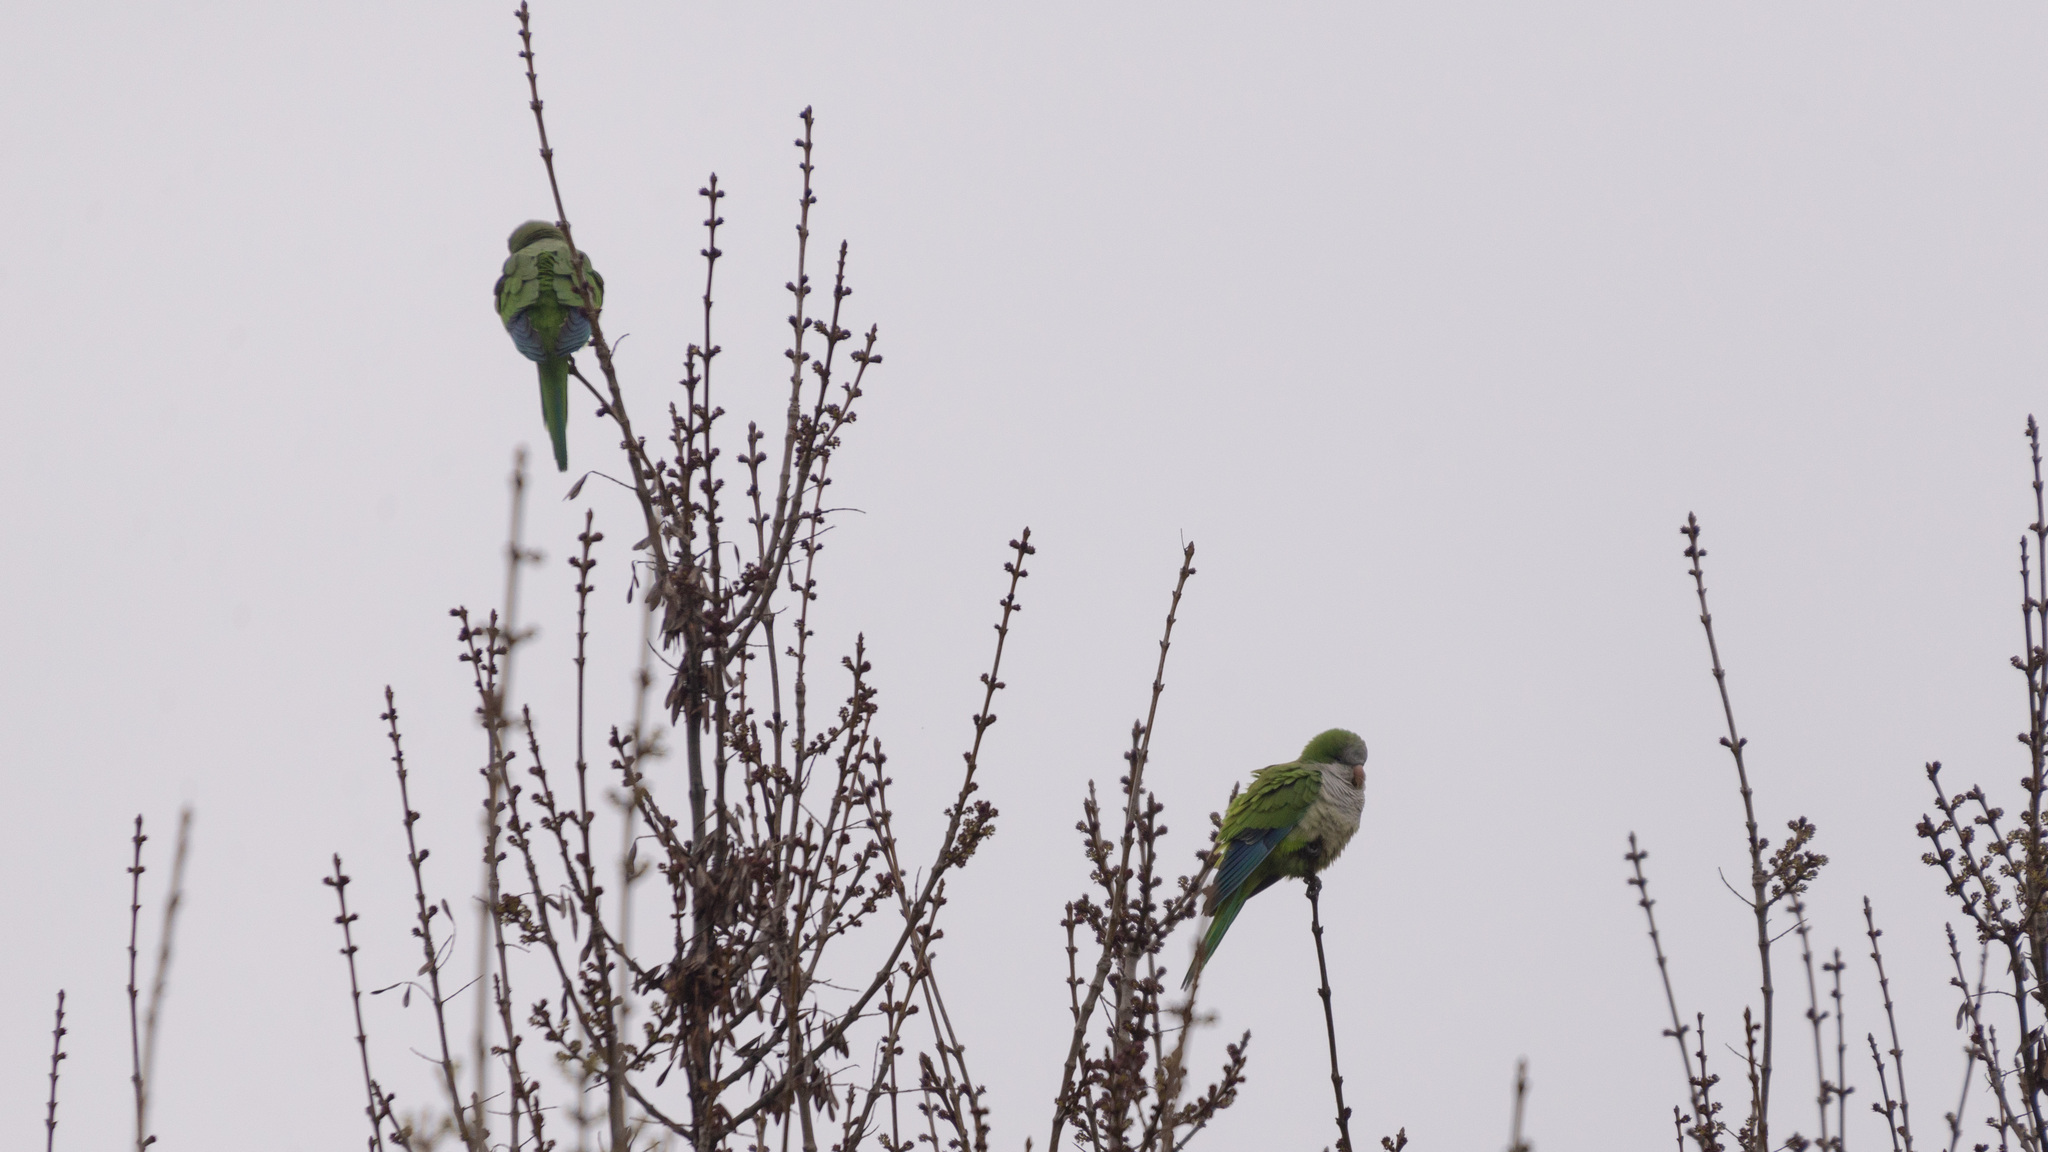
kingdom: Animalia
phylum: Chordata
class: Aves
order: Psittaciformes
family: Psittacidae
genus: Myiopsitta
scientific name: Myiopsitta monachus
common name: Monk parakeet
